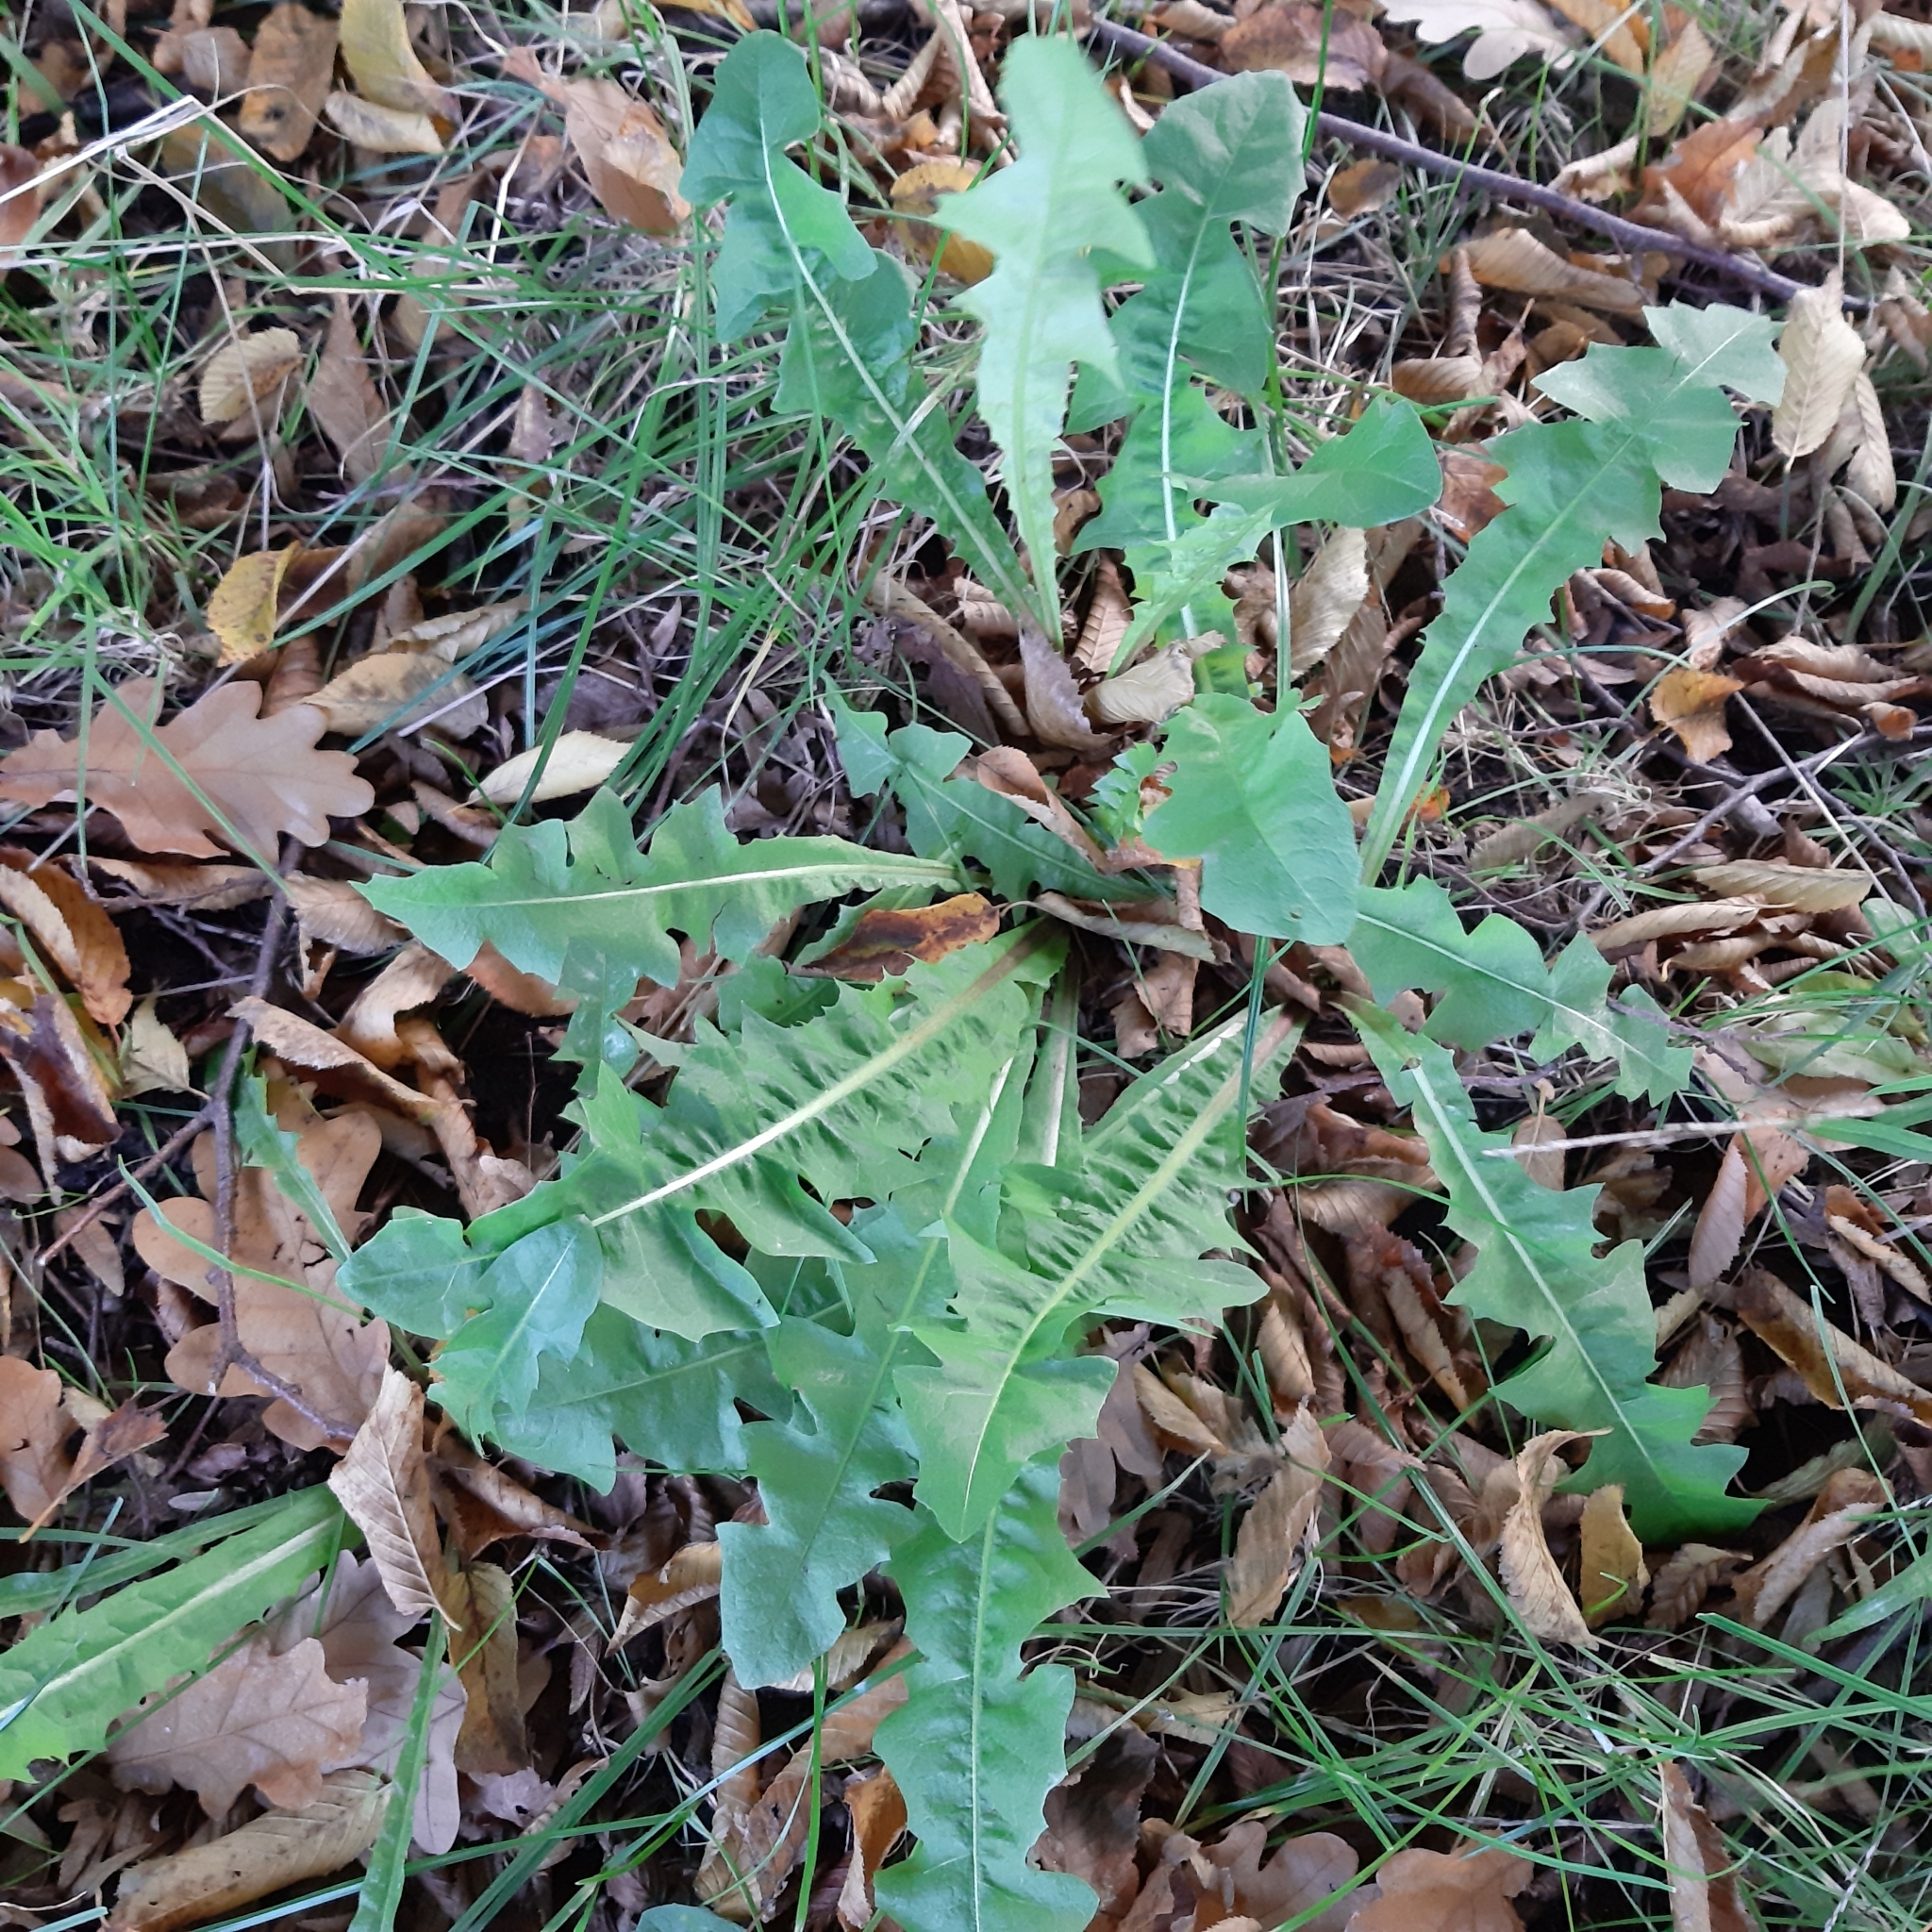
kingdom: Plantae
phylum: Tracheophyta
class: Magnoliopsida
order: Asterales
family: Asteraceae
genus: Taraxacum
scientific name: Taraxacum officinale
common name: Common dandelion
